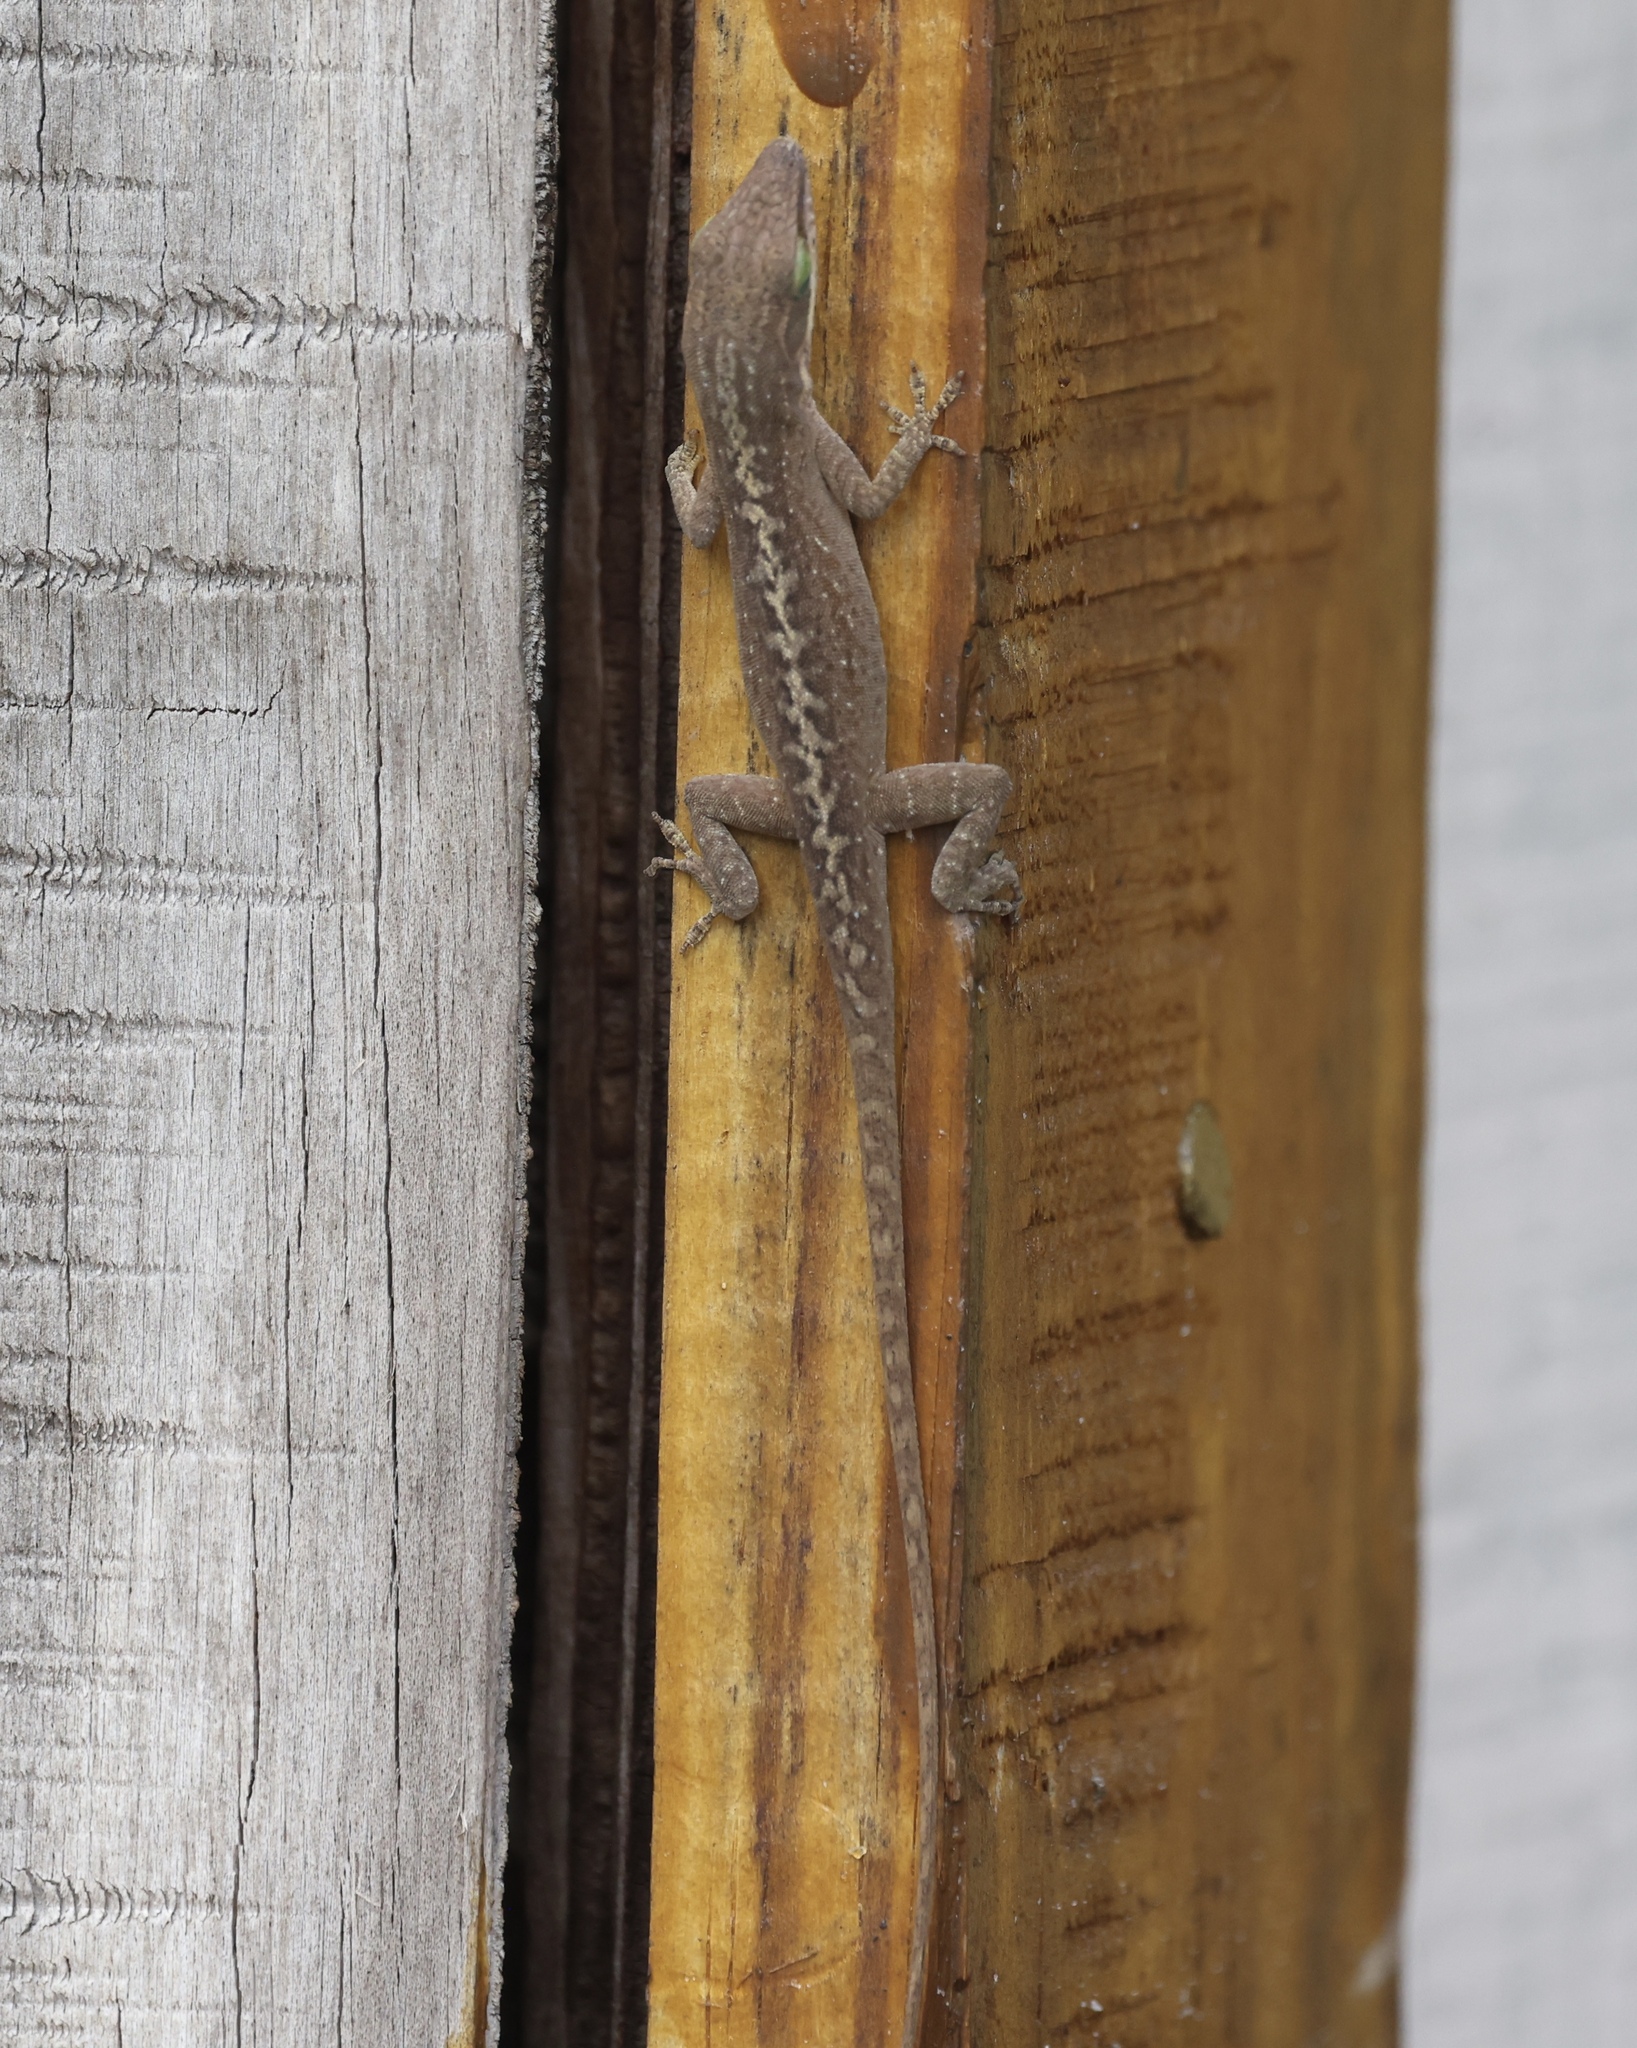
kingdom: Animalia
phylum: Chordata
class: Squamata
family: Dactyloidae
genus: Anolis
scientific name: Anolis carolinensis
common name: Green anole
